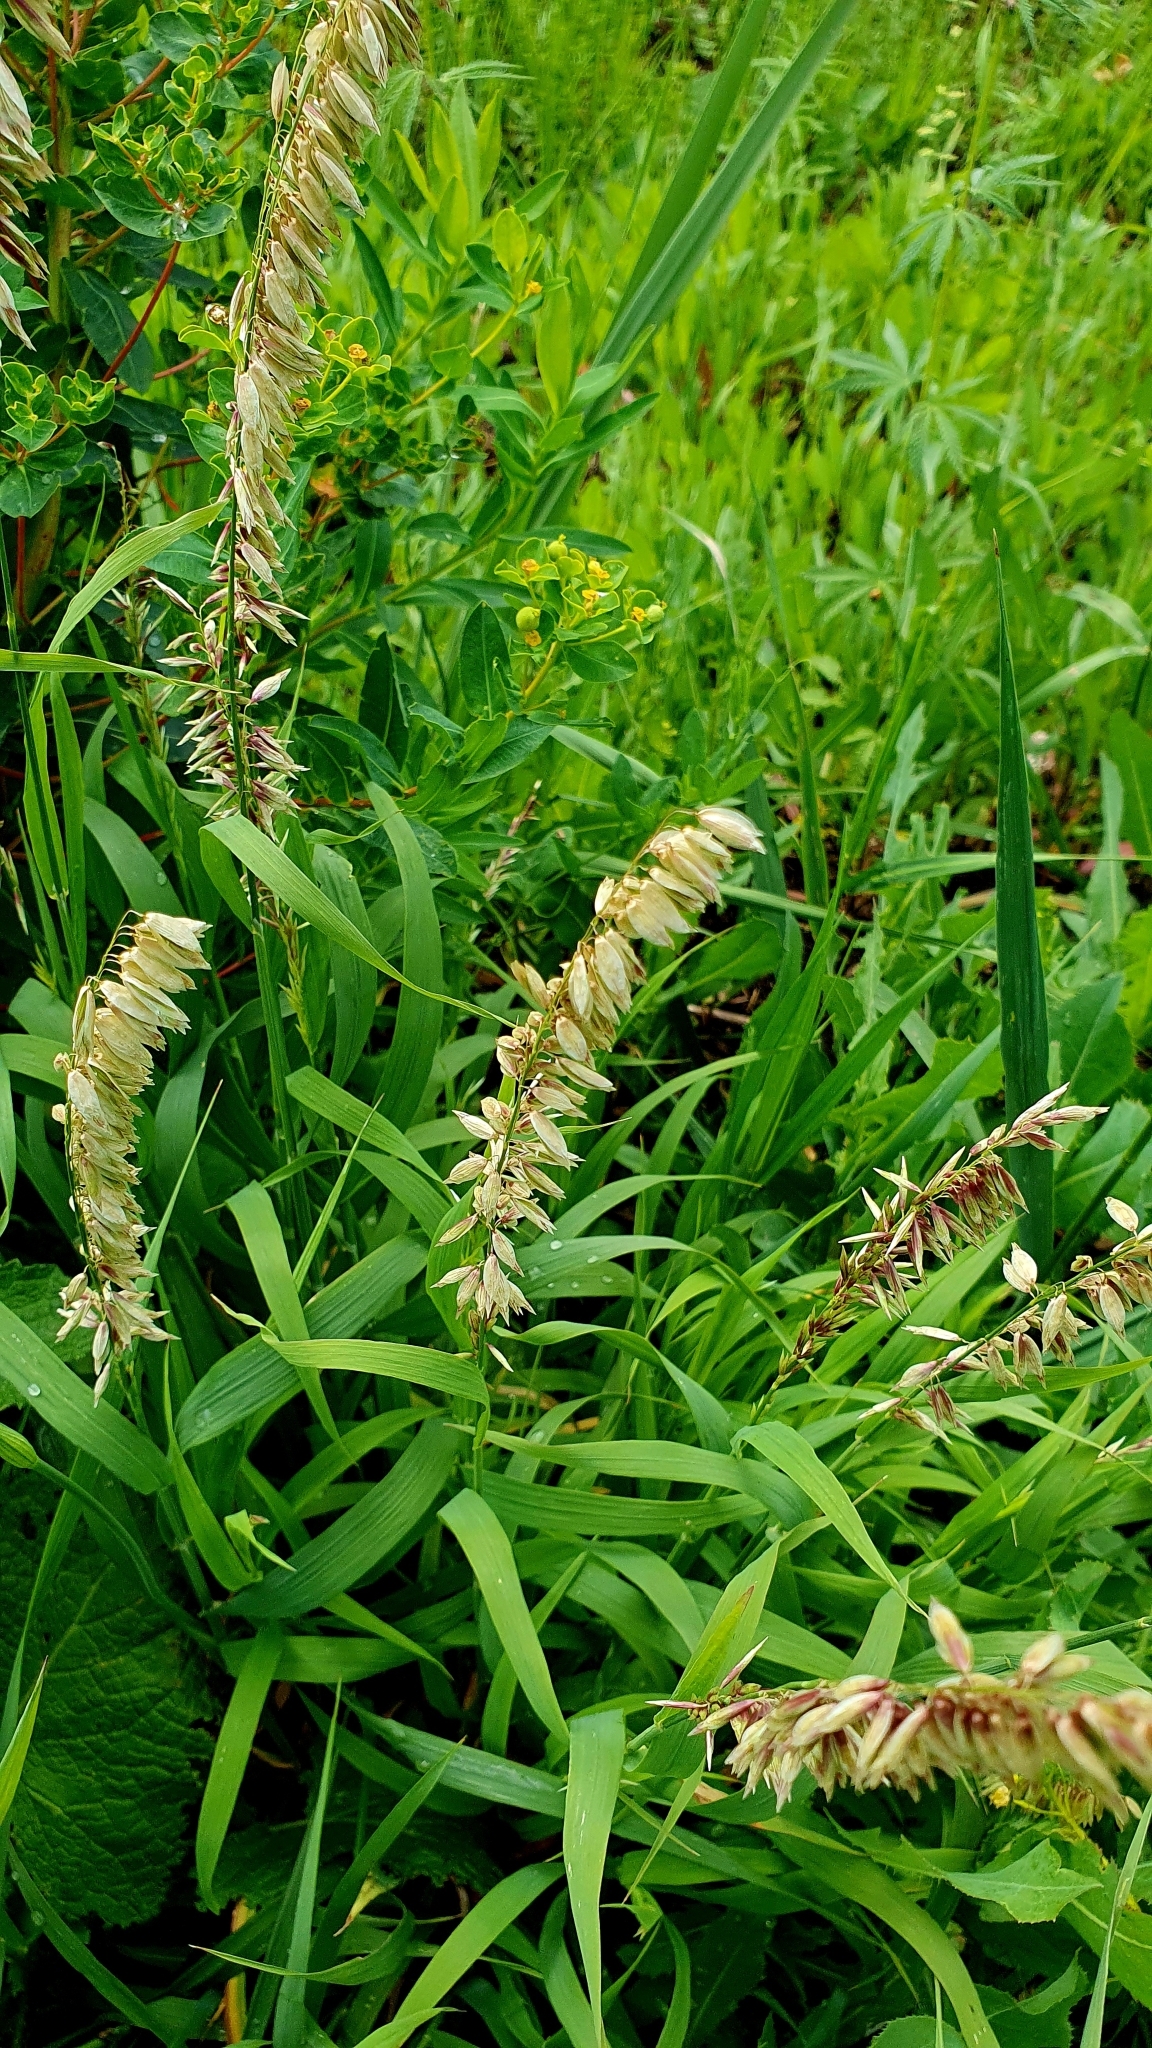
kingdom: Plantae
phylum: Tracheophyta
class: Liliopsida
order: Poales
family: Poaceae
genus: Melica
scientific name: Melica altissima
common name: Siberian melicgrass
